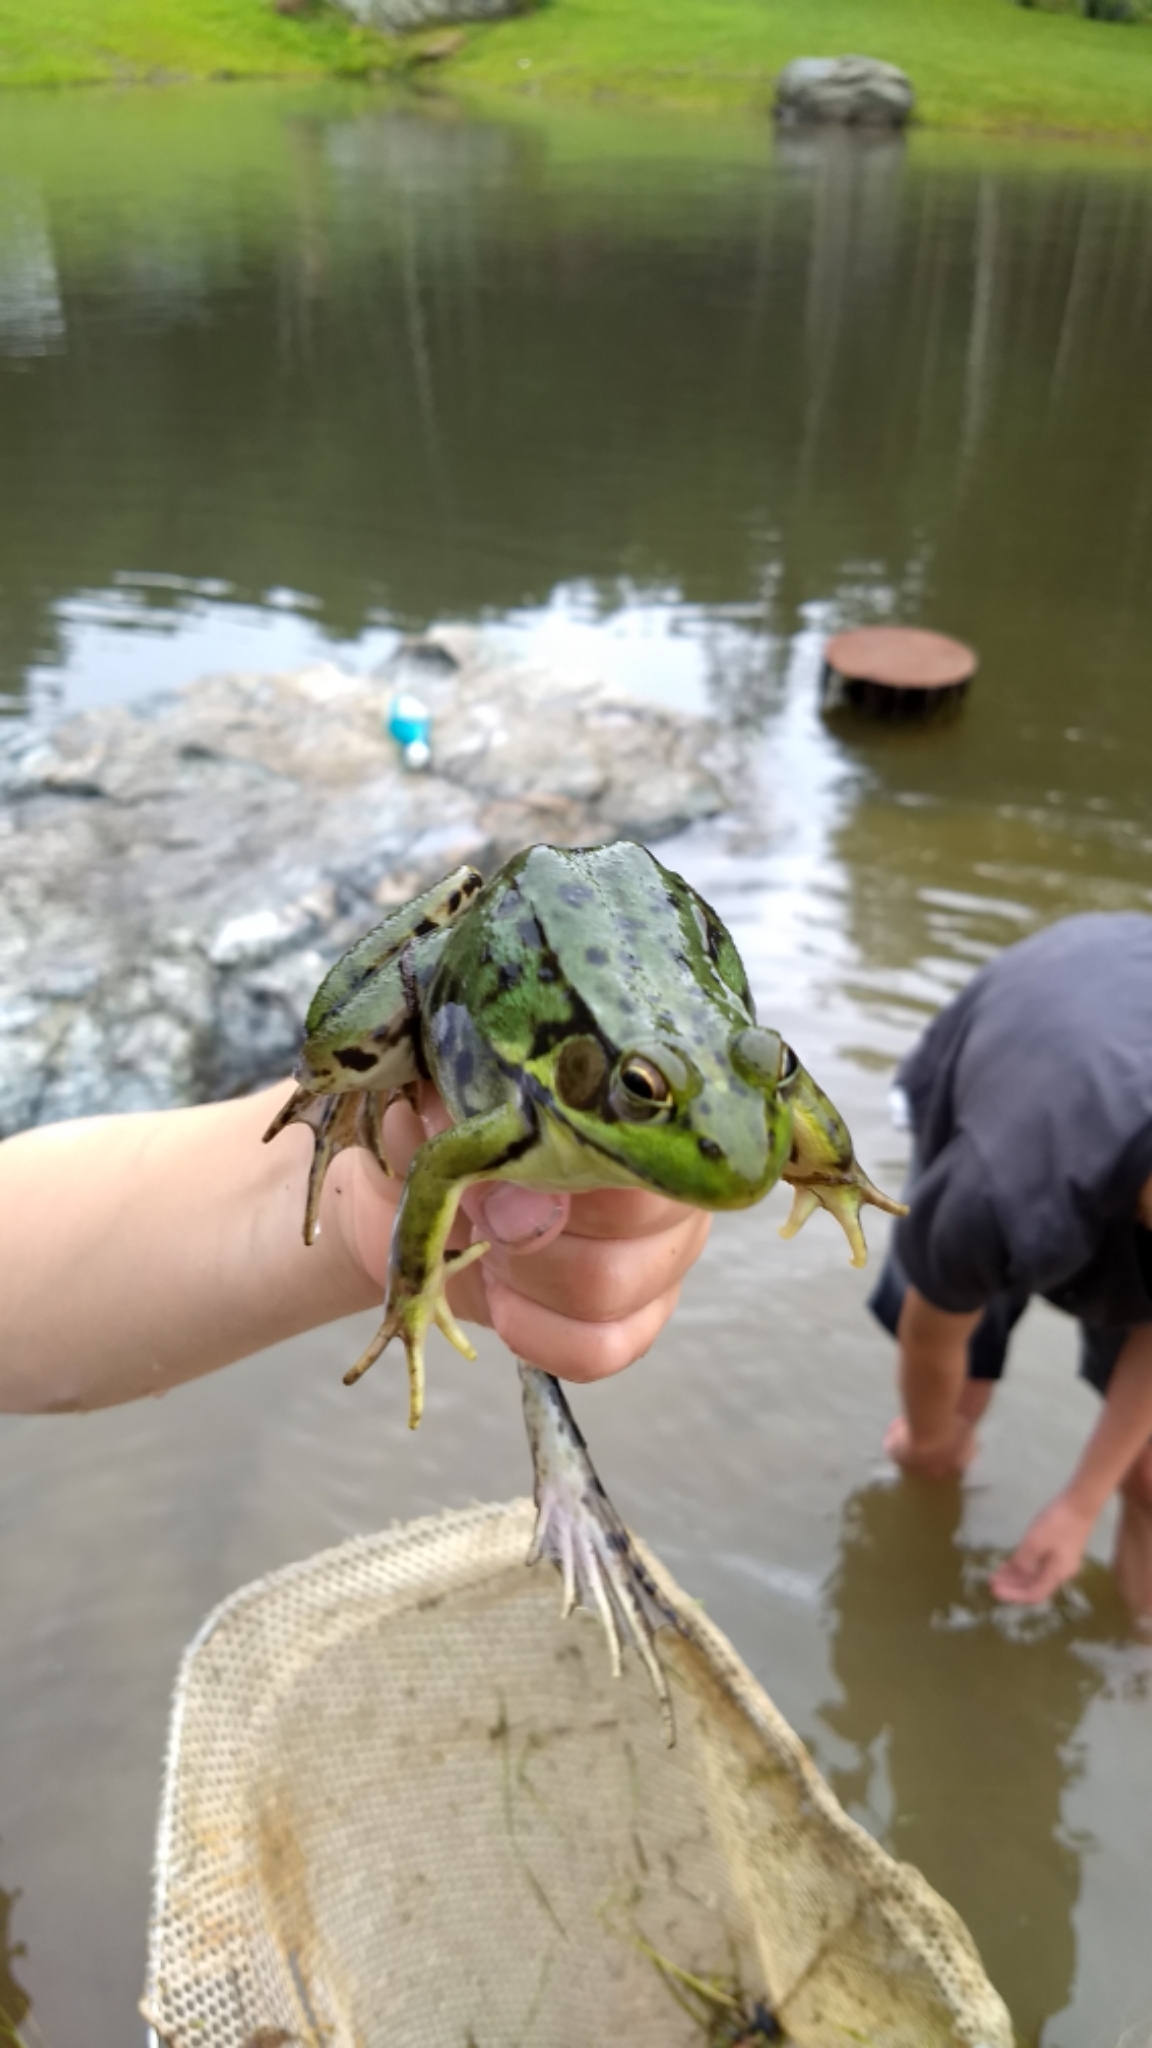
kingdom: Animalia
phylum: Chordata
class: Amphibia
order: Anura
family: Ranidae
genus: Lithobates
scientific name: Lithobates septentrionalis
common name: Mink frog
